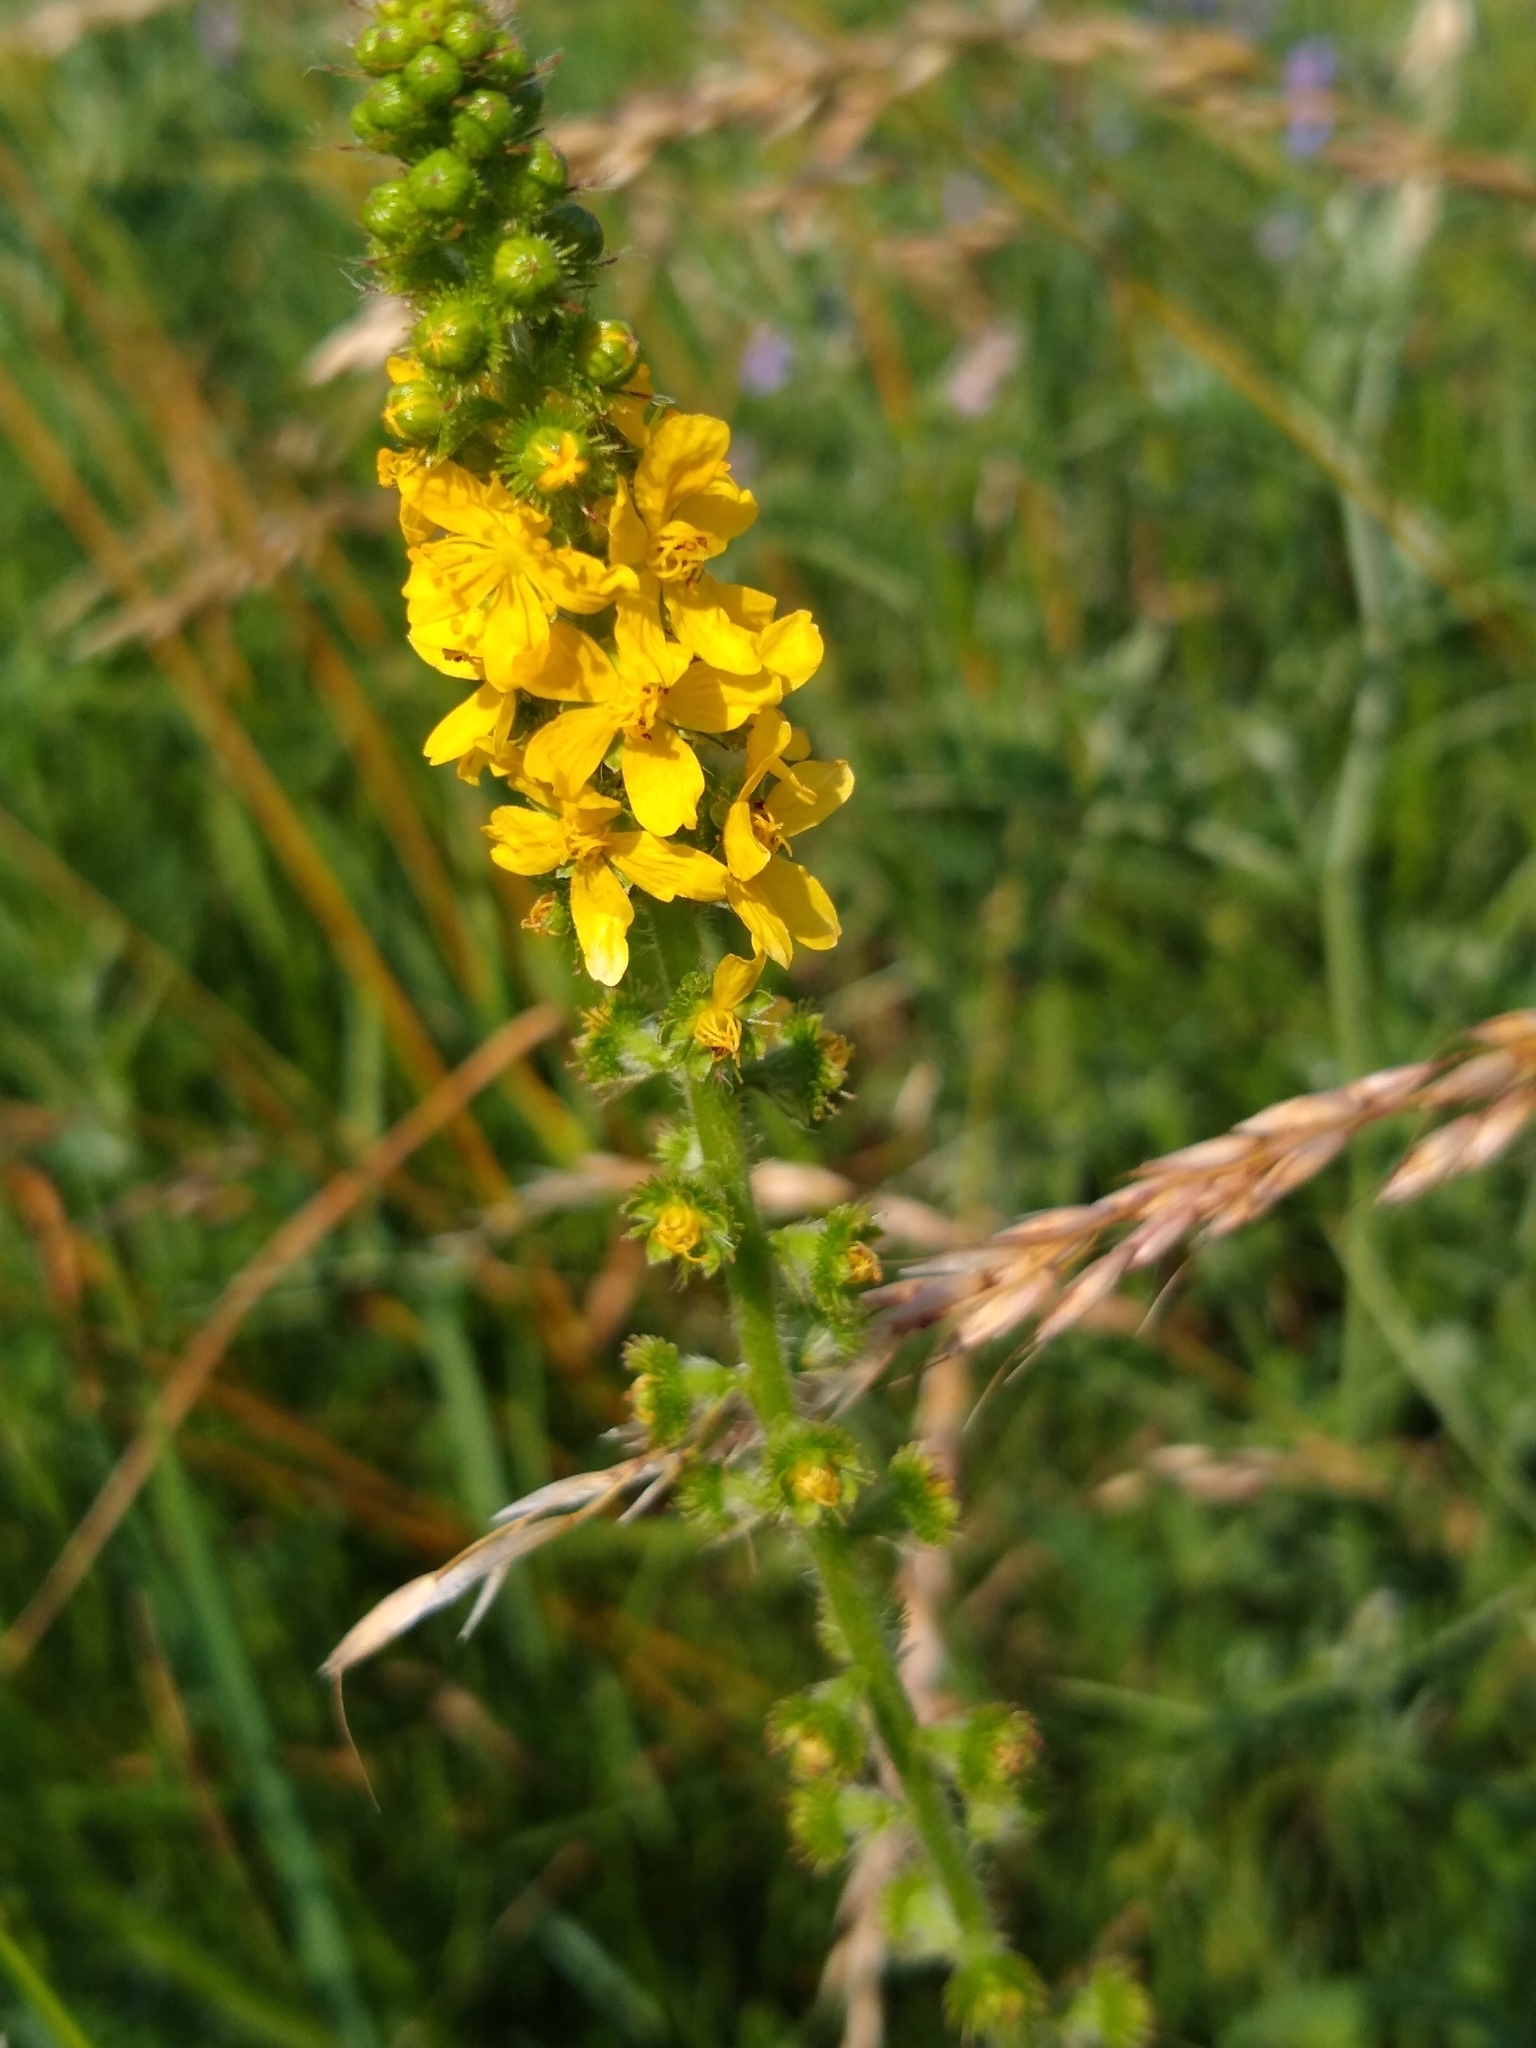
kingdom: Plantae
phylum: Tracheophyta
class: Magnoliopsida
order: Rosales
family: Rosaceae
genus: Agrimonia
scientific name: Agrimonia eupatoria
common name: Agrimony
